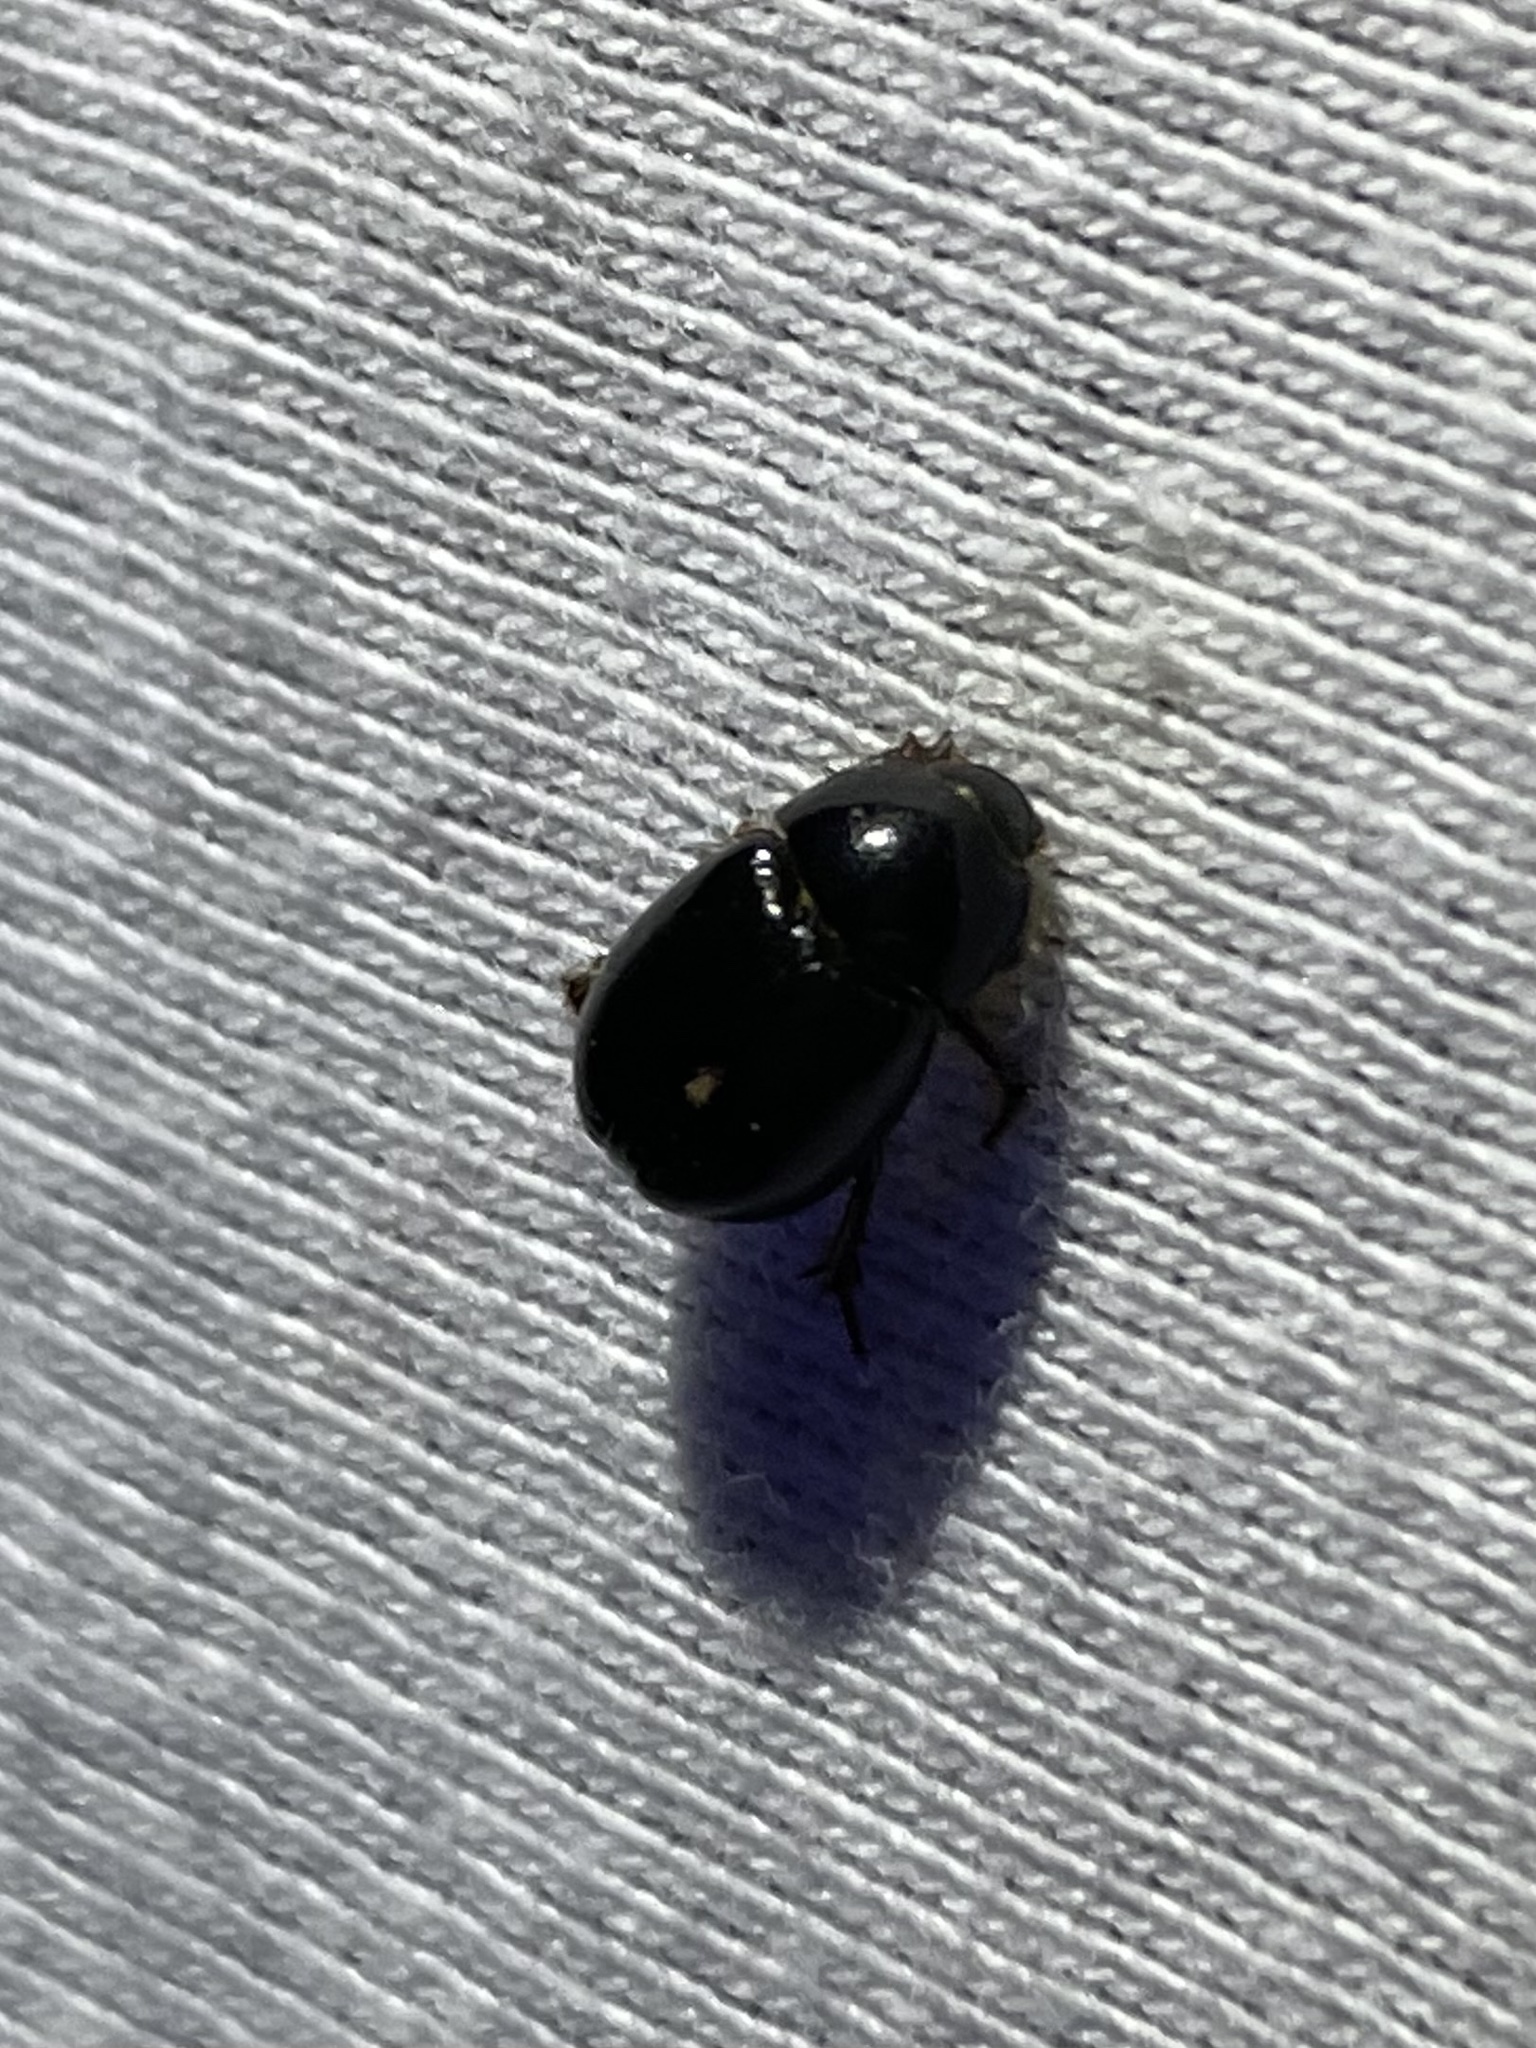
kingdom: Animalia
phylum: Arthropoda
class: Insecta
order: Coleoptera
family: Hybosoridae
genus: Hybosorus
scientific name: Hybosorus illigeri
